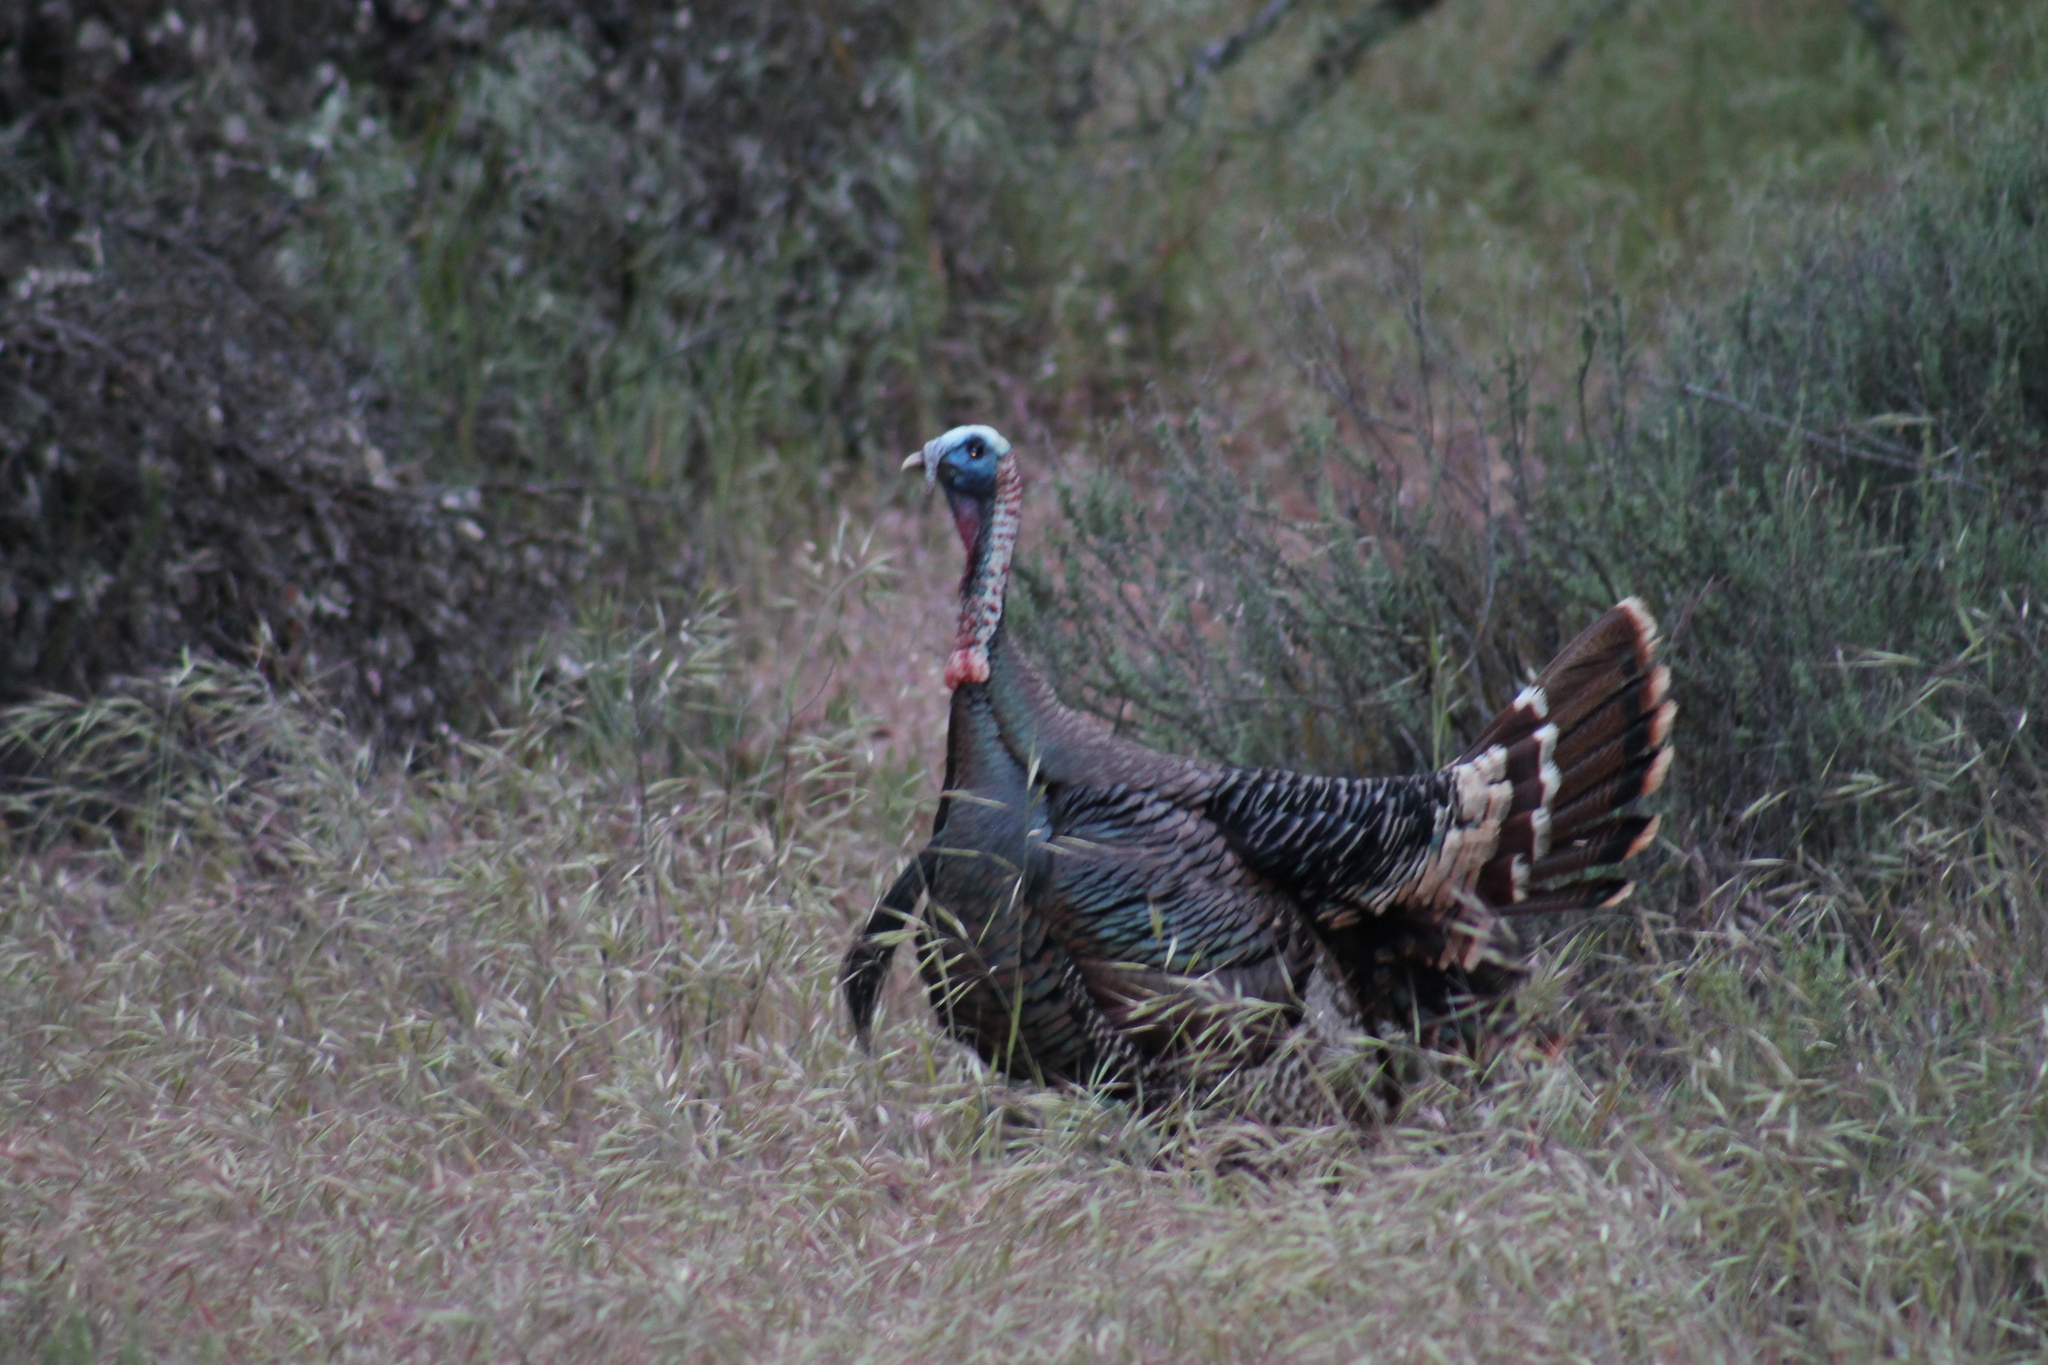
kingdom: Animalia
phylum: Chordata
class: Aves
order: Galliformes
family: Phasianidae
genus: Meleagris
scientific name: Meleagris gallopavo
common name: Wild turkey
